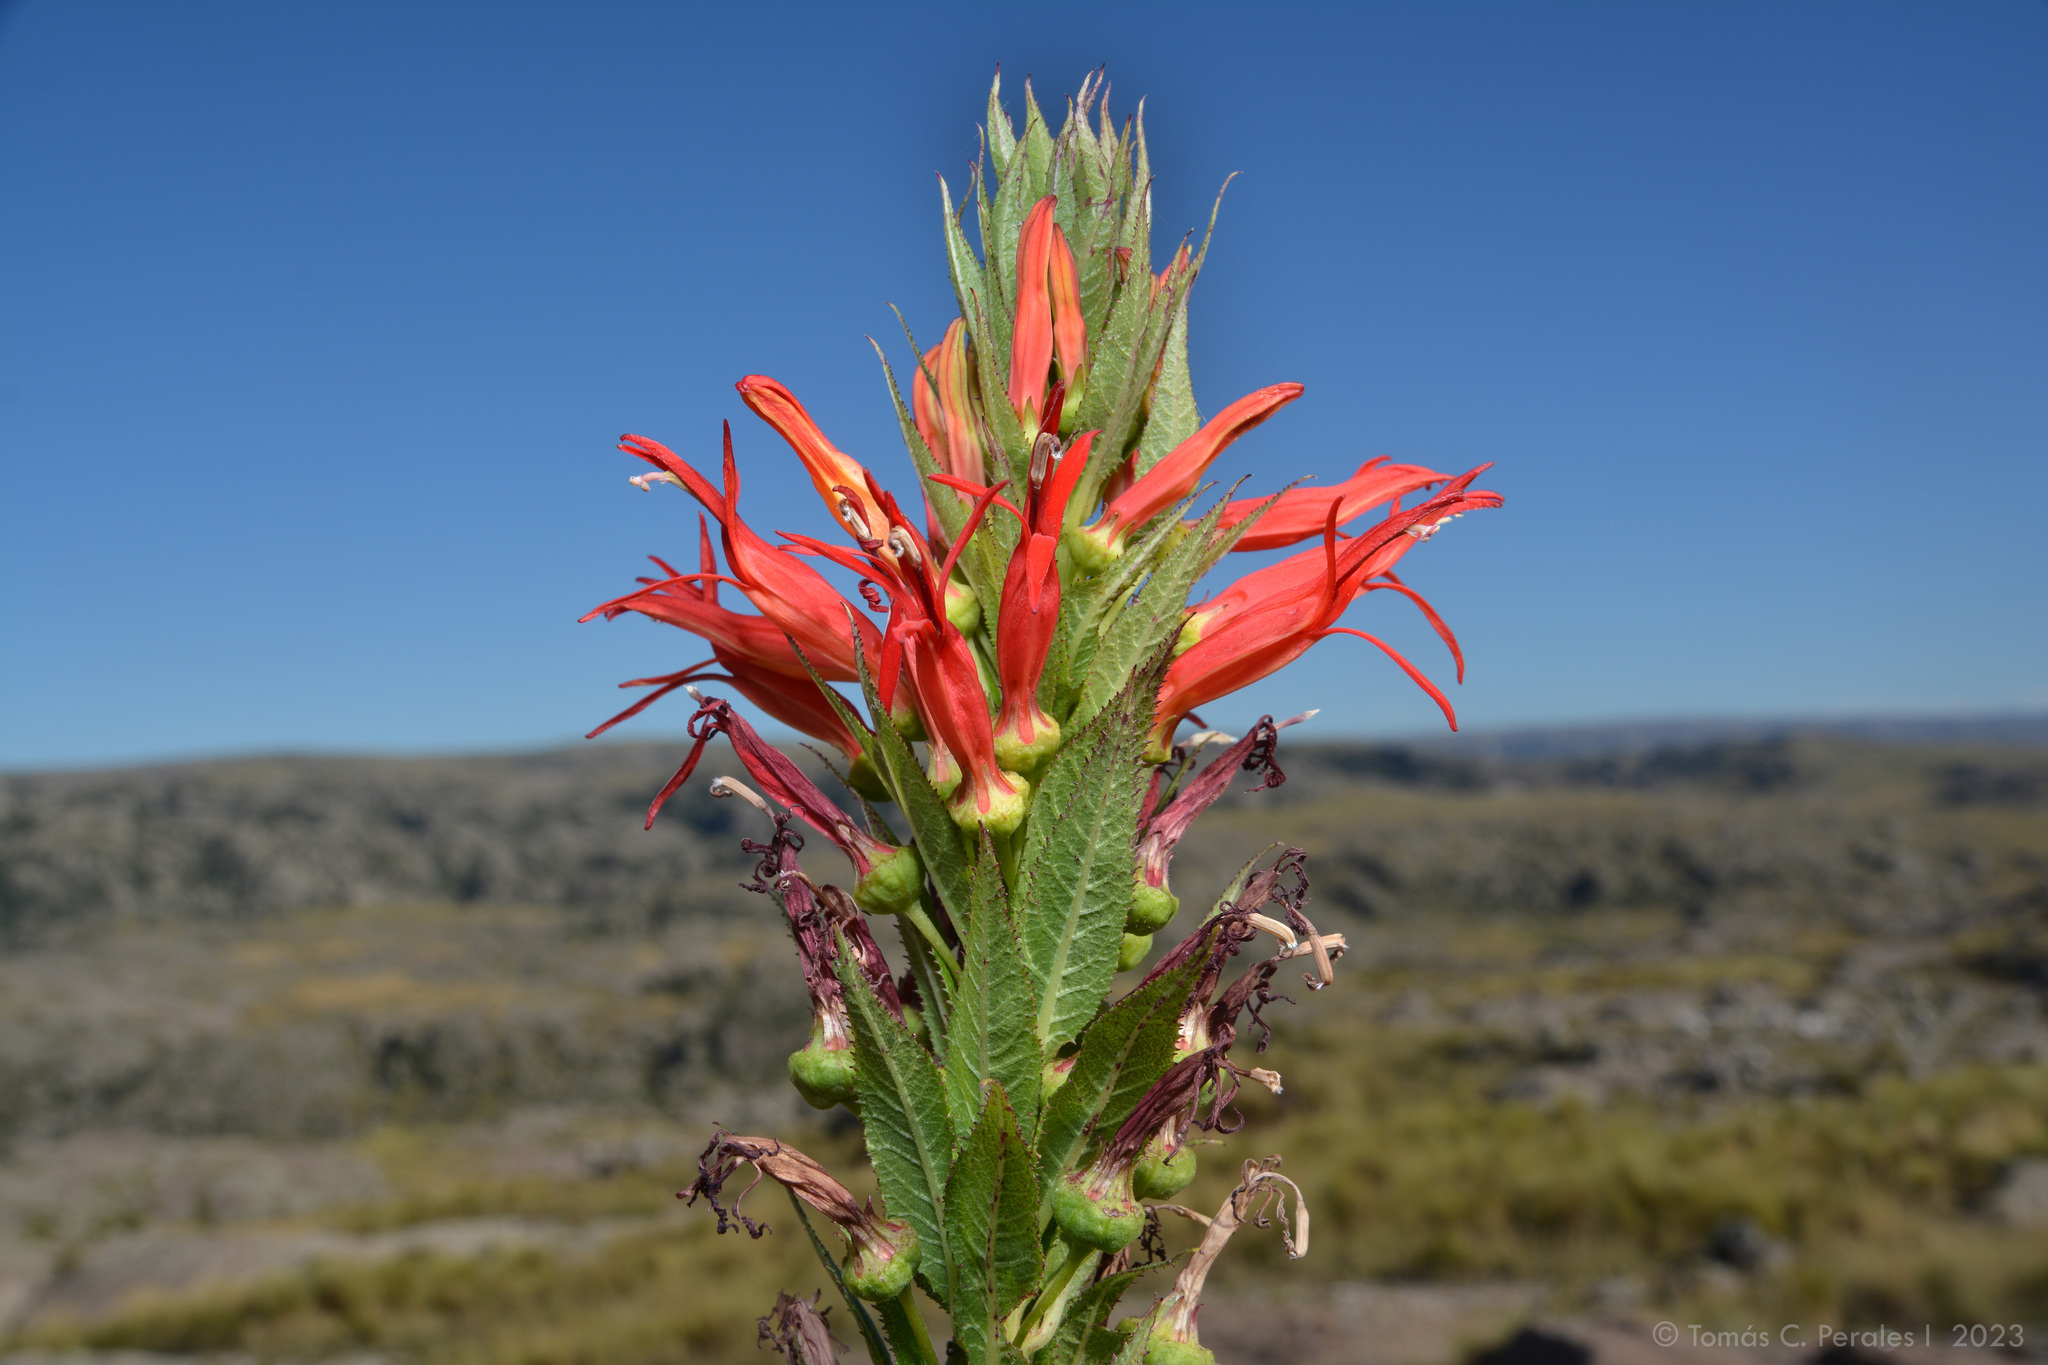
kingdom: Plantae
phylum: Tracheophyta
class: Magnoliopsida
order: Asterales
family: Campanulaceae
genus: Siphocampylus
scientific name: Siphocampylus foliosus
